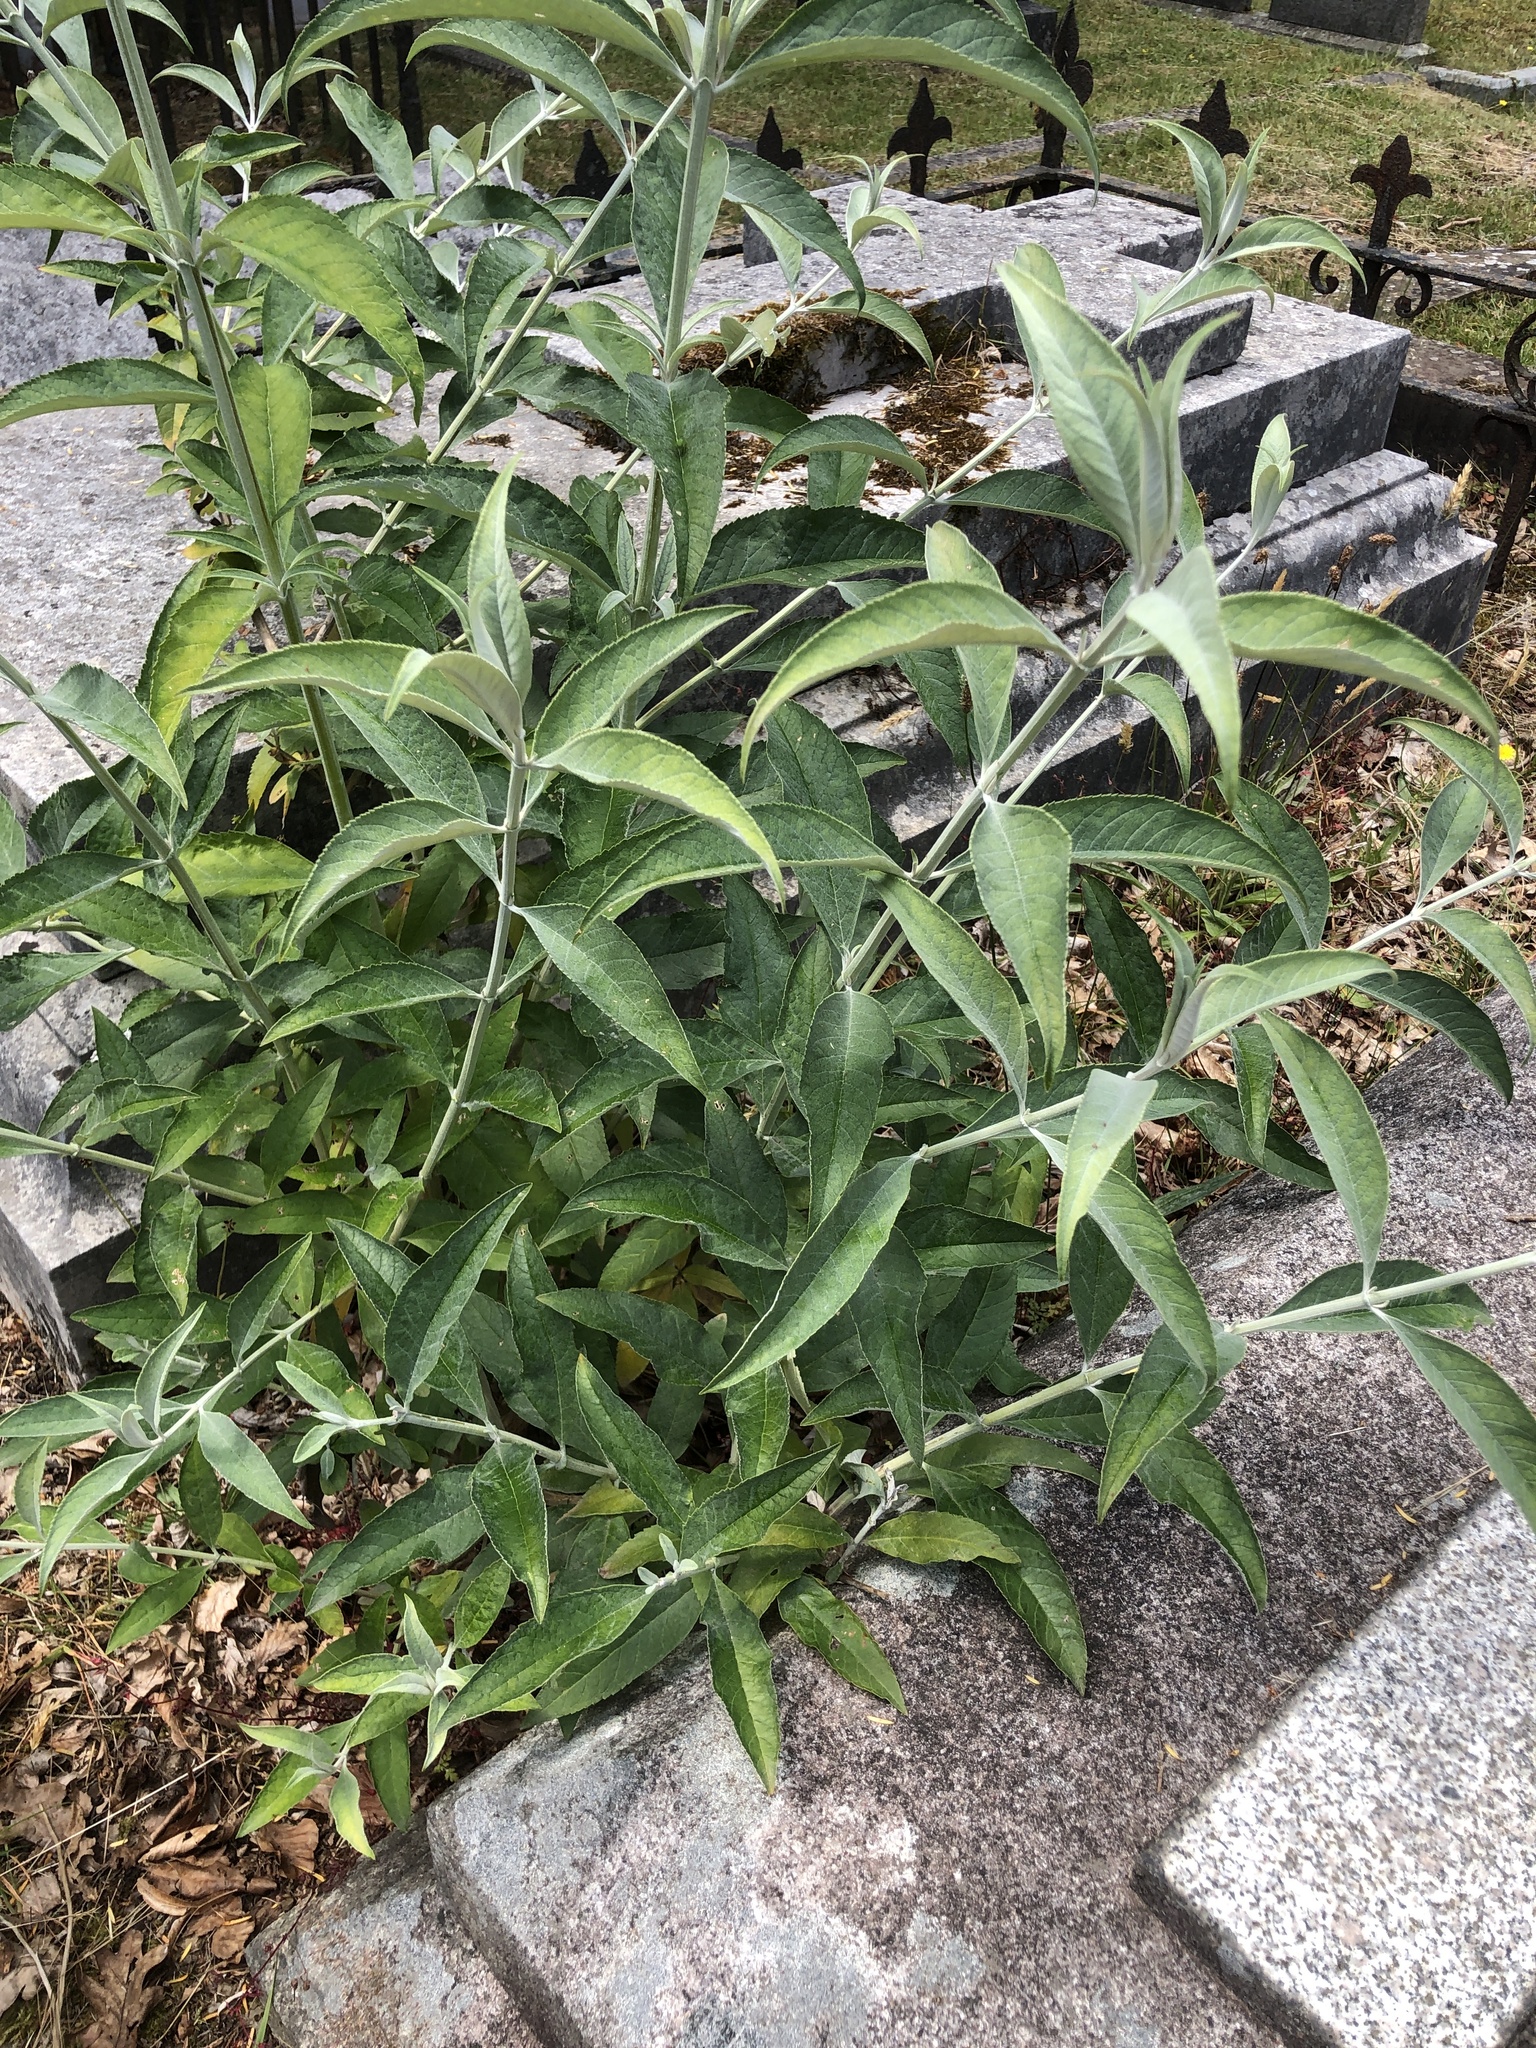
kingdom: Plantae
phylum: Tracheophyta
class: Magnoliopsida
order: Lamiales
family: Scrophulariaceae
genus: Buddleja
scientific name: Buddleja davidii
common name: Butterfly-bush
